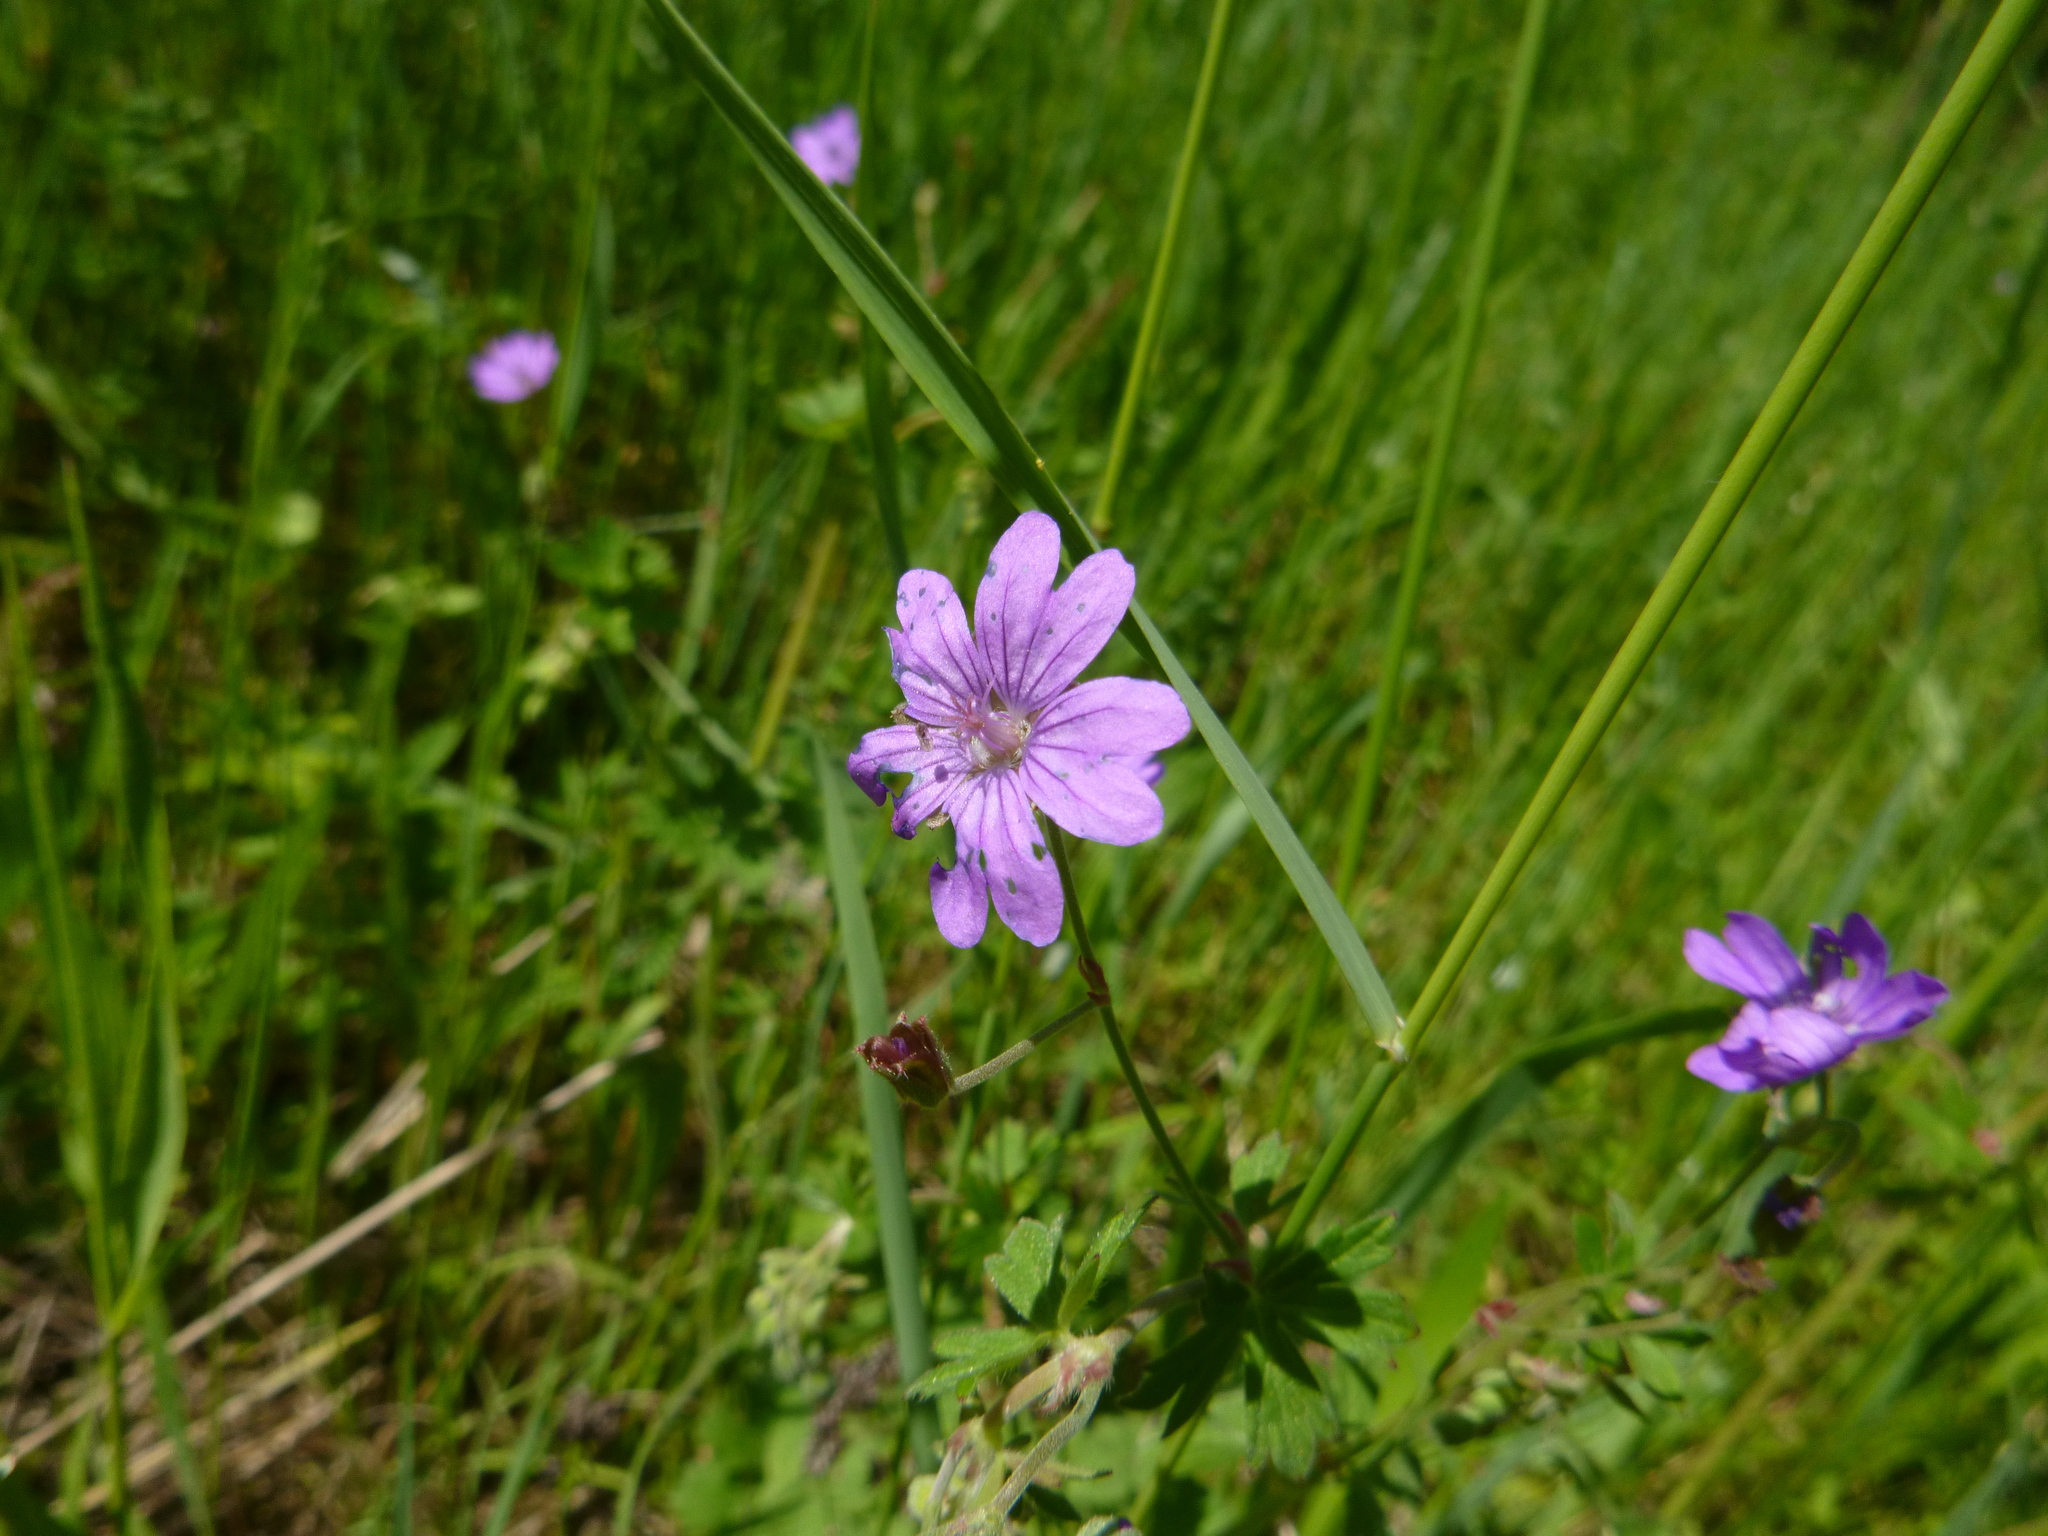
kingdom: Plantae
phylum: Tracheophyta
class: Magnoliopsida
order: Geraniales
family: Geraniaceae
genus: Geranium
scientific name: Geranium pyrenaicum
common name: Hedgerow crane's-bill
